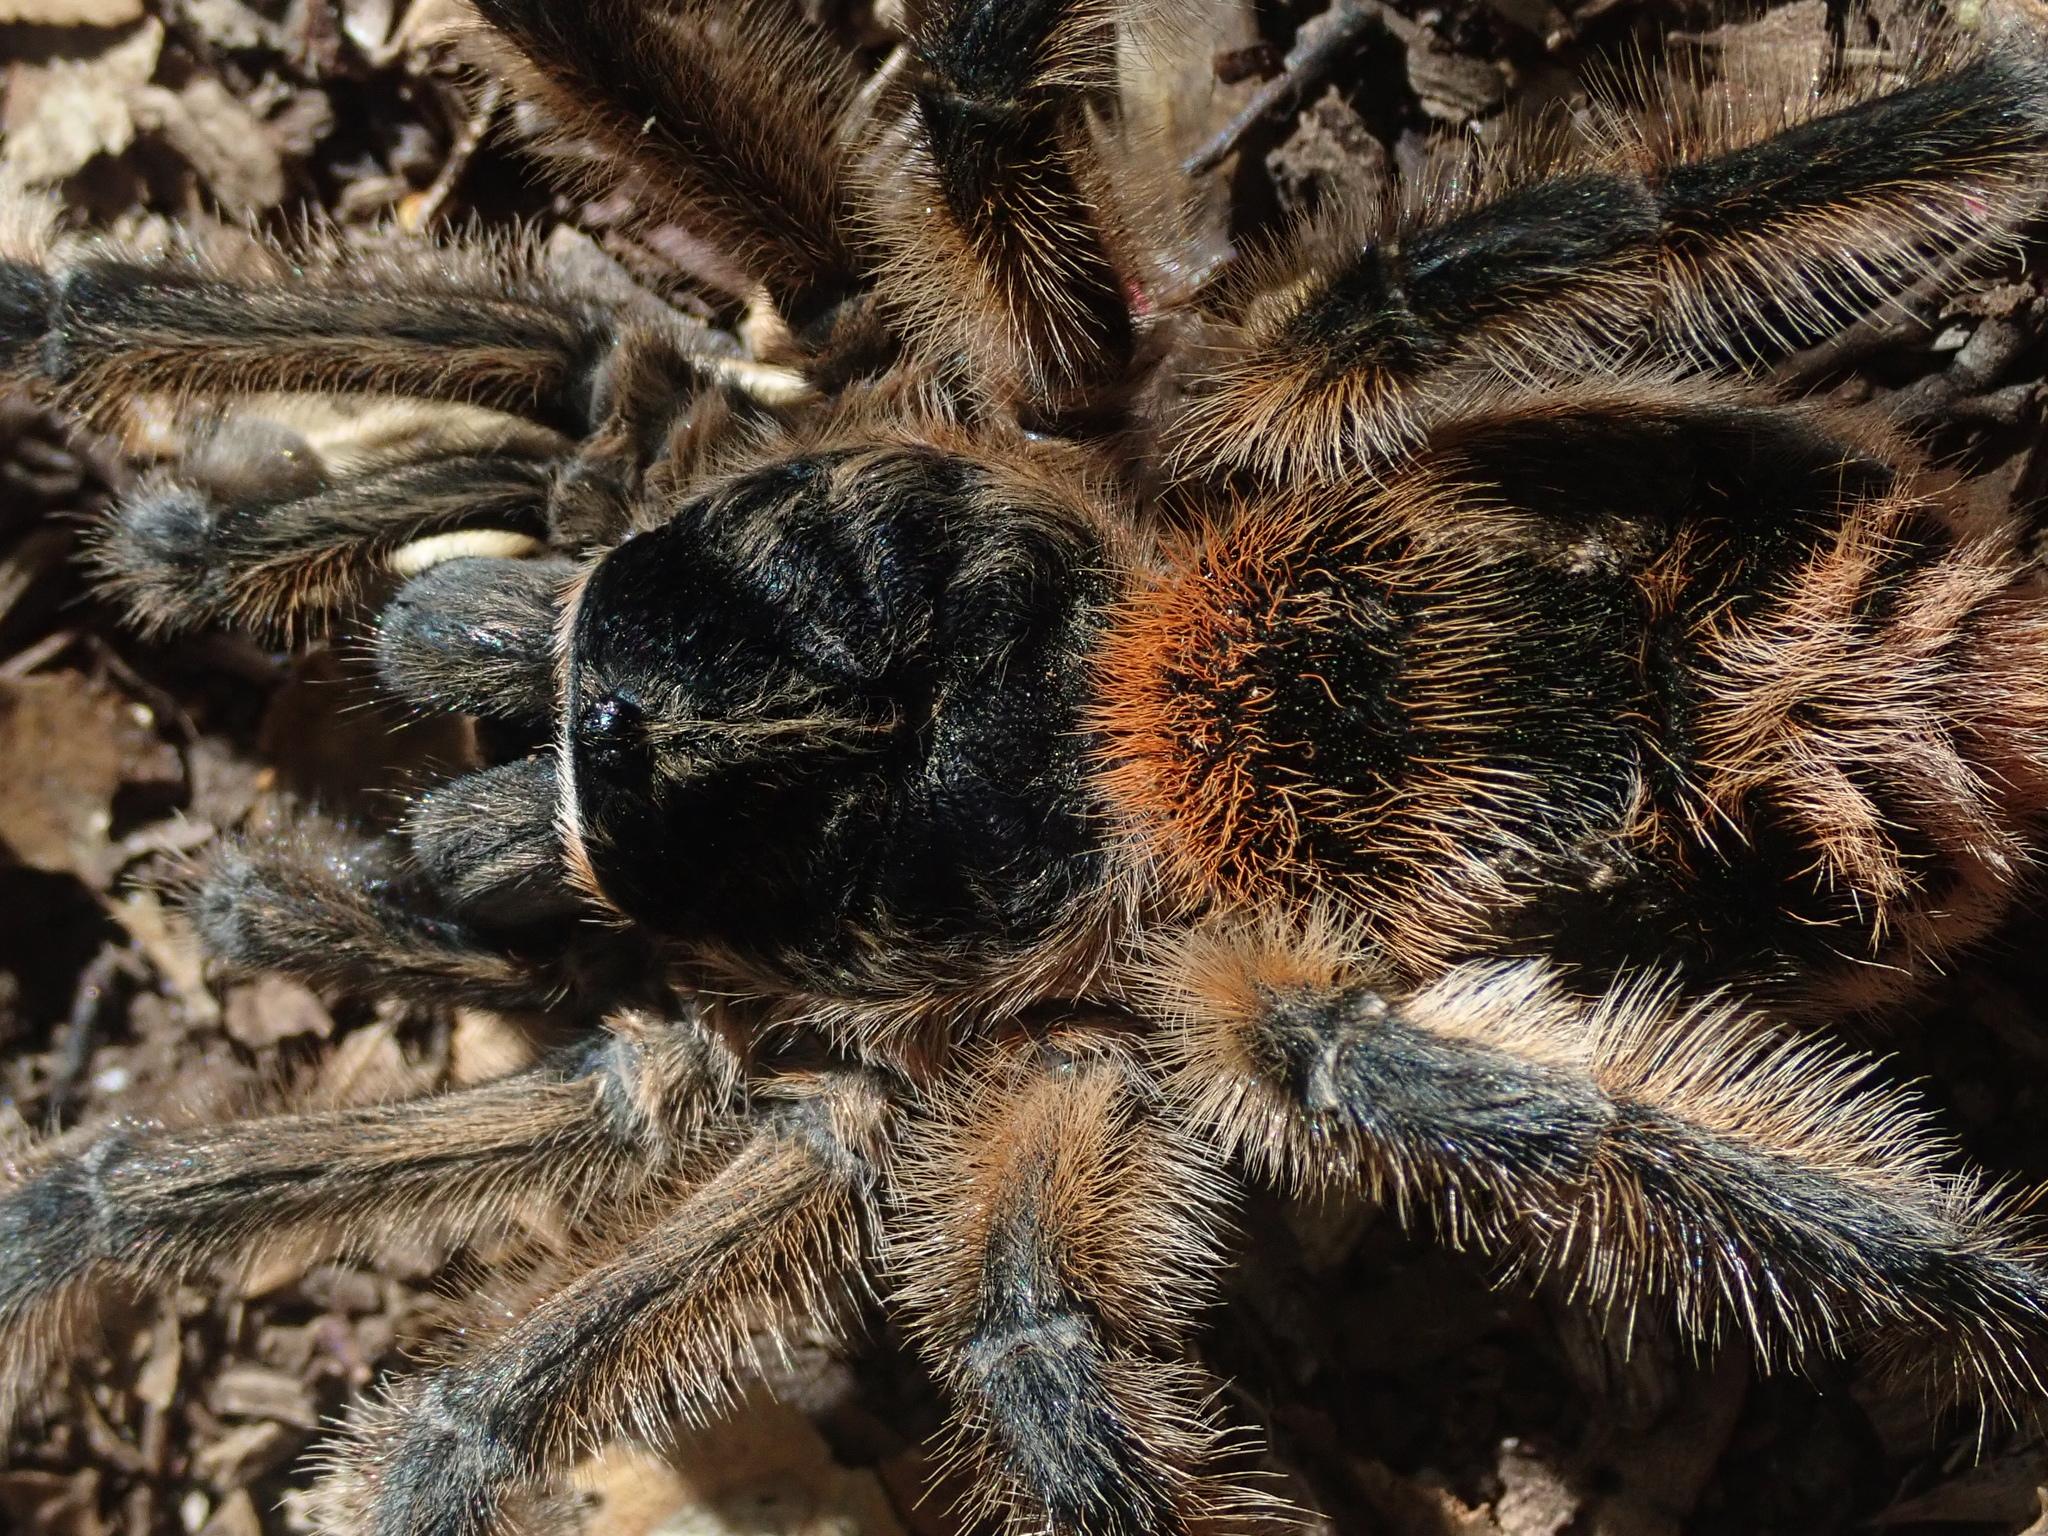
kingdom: Animalia
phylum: Arthropoda
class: Arachnida
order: Araneae
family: Theraphosidae
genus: Phrixotrichus
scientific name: Phrixotrichus vulpinus
